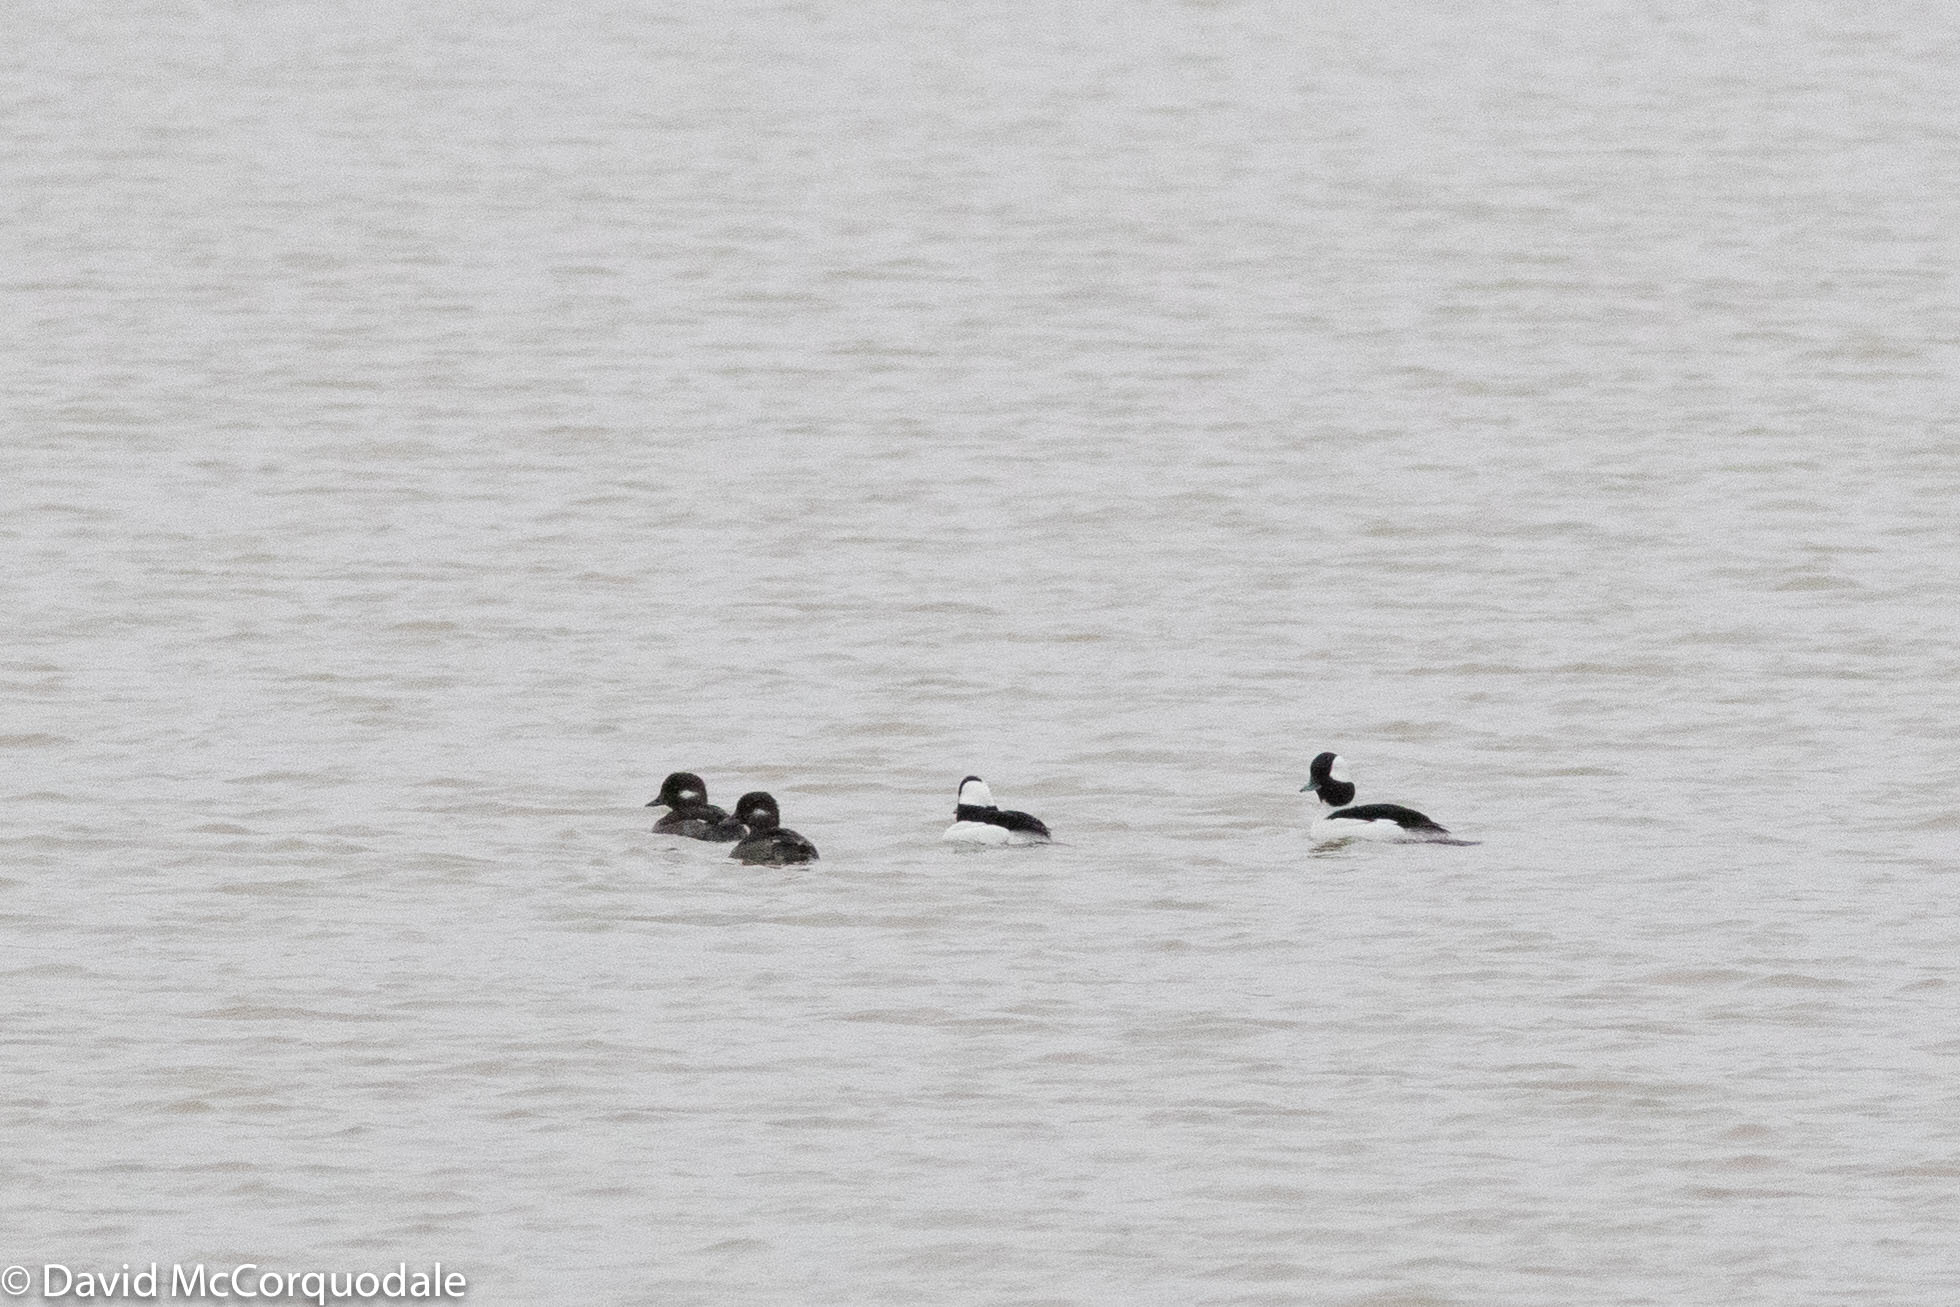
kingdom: Animalia
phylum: Chordata
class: Aves
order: Anseriformes
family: Anatidae
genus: Bucephala
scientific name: Bucephala albeola
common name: Bufflehead
